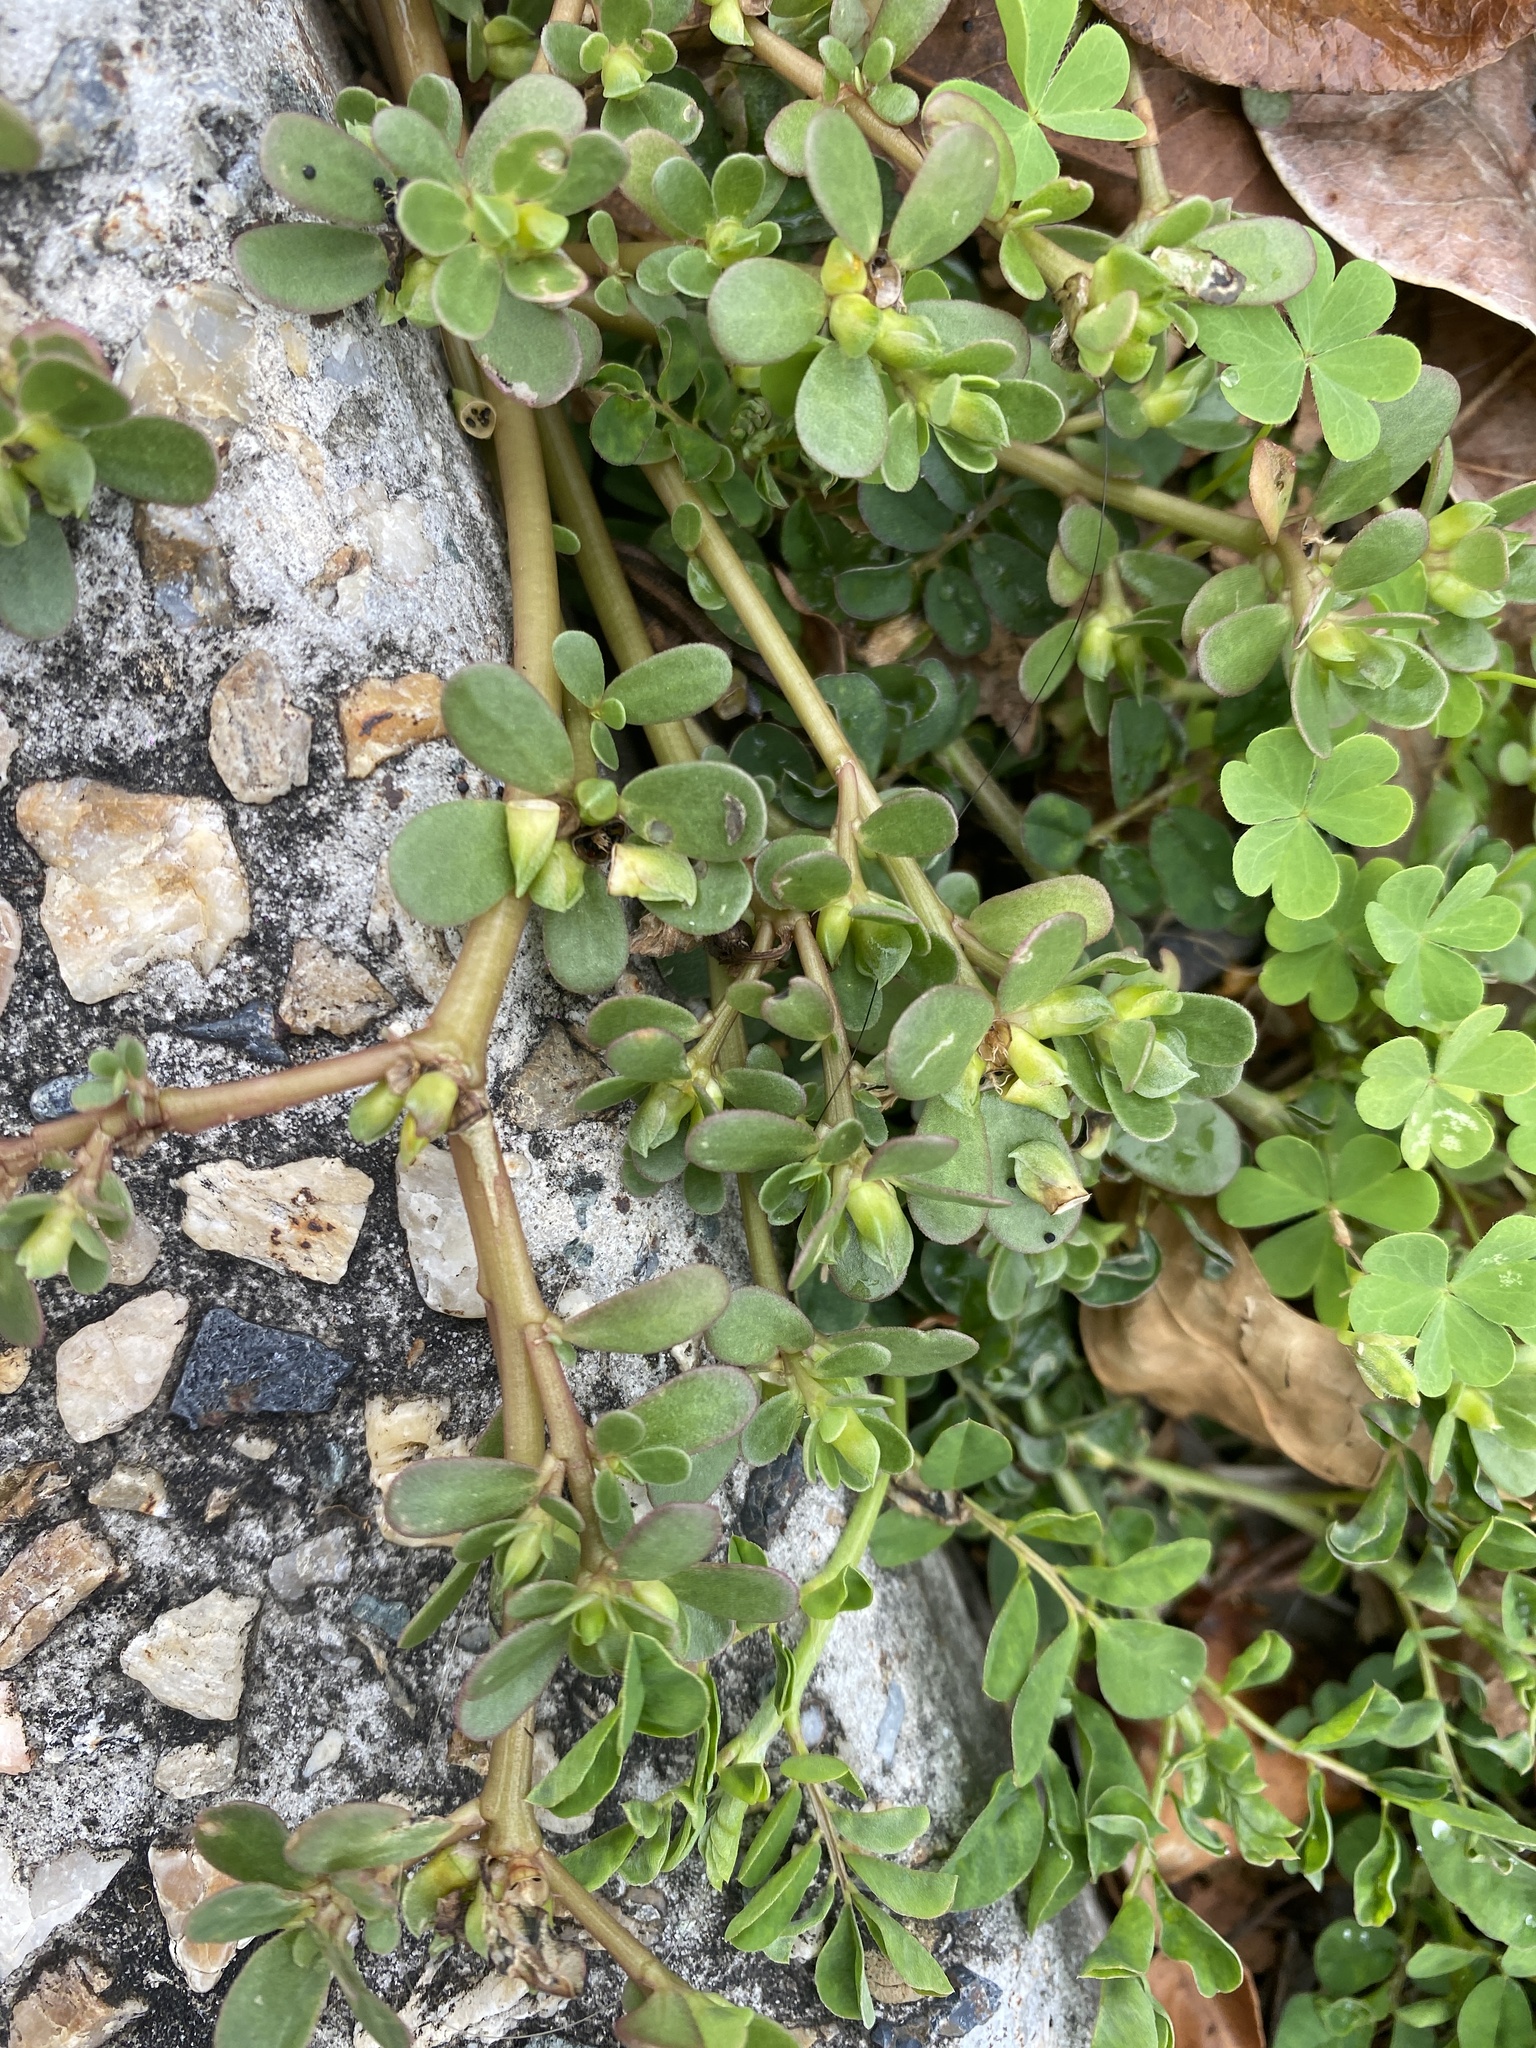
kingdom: Plantae
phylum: Tracheophyta
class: Magnoliopsida
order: Caryophyllales
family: Portulacaceae
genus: Portulaca
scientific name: Portulaca oleracea
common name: Common purslane
